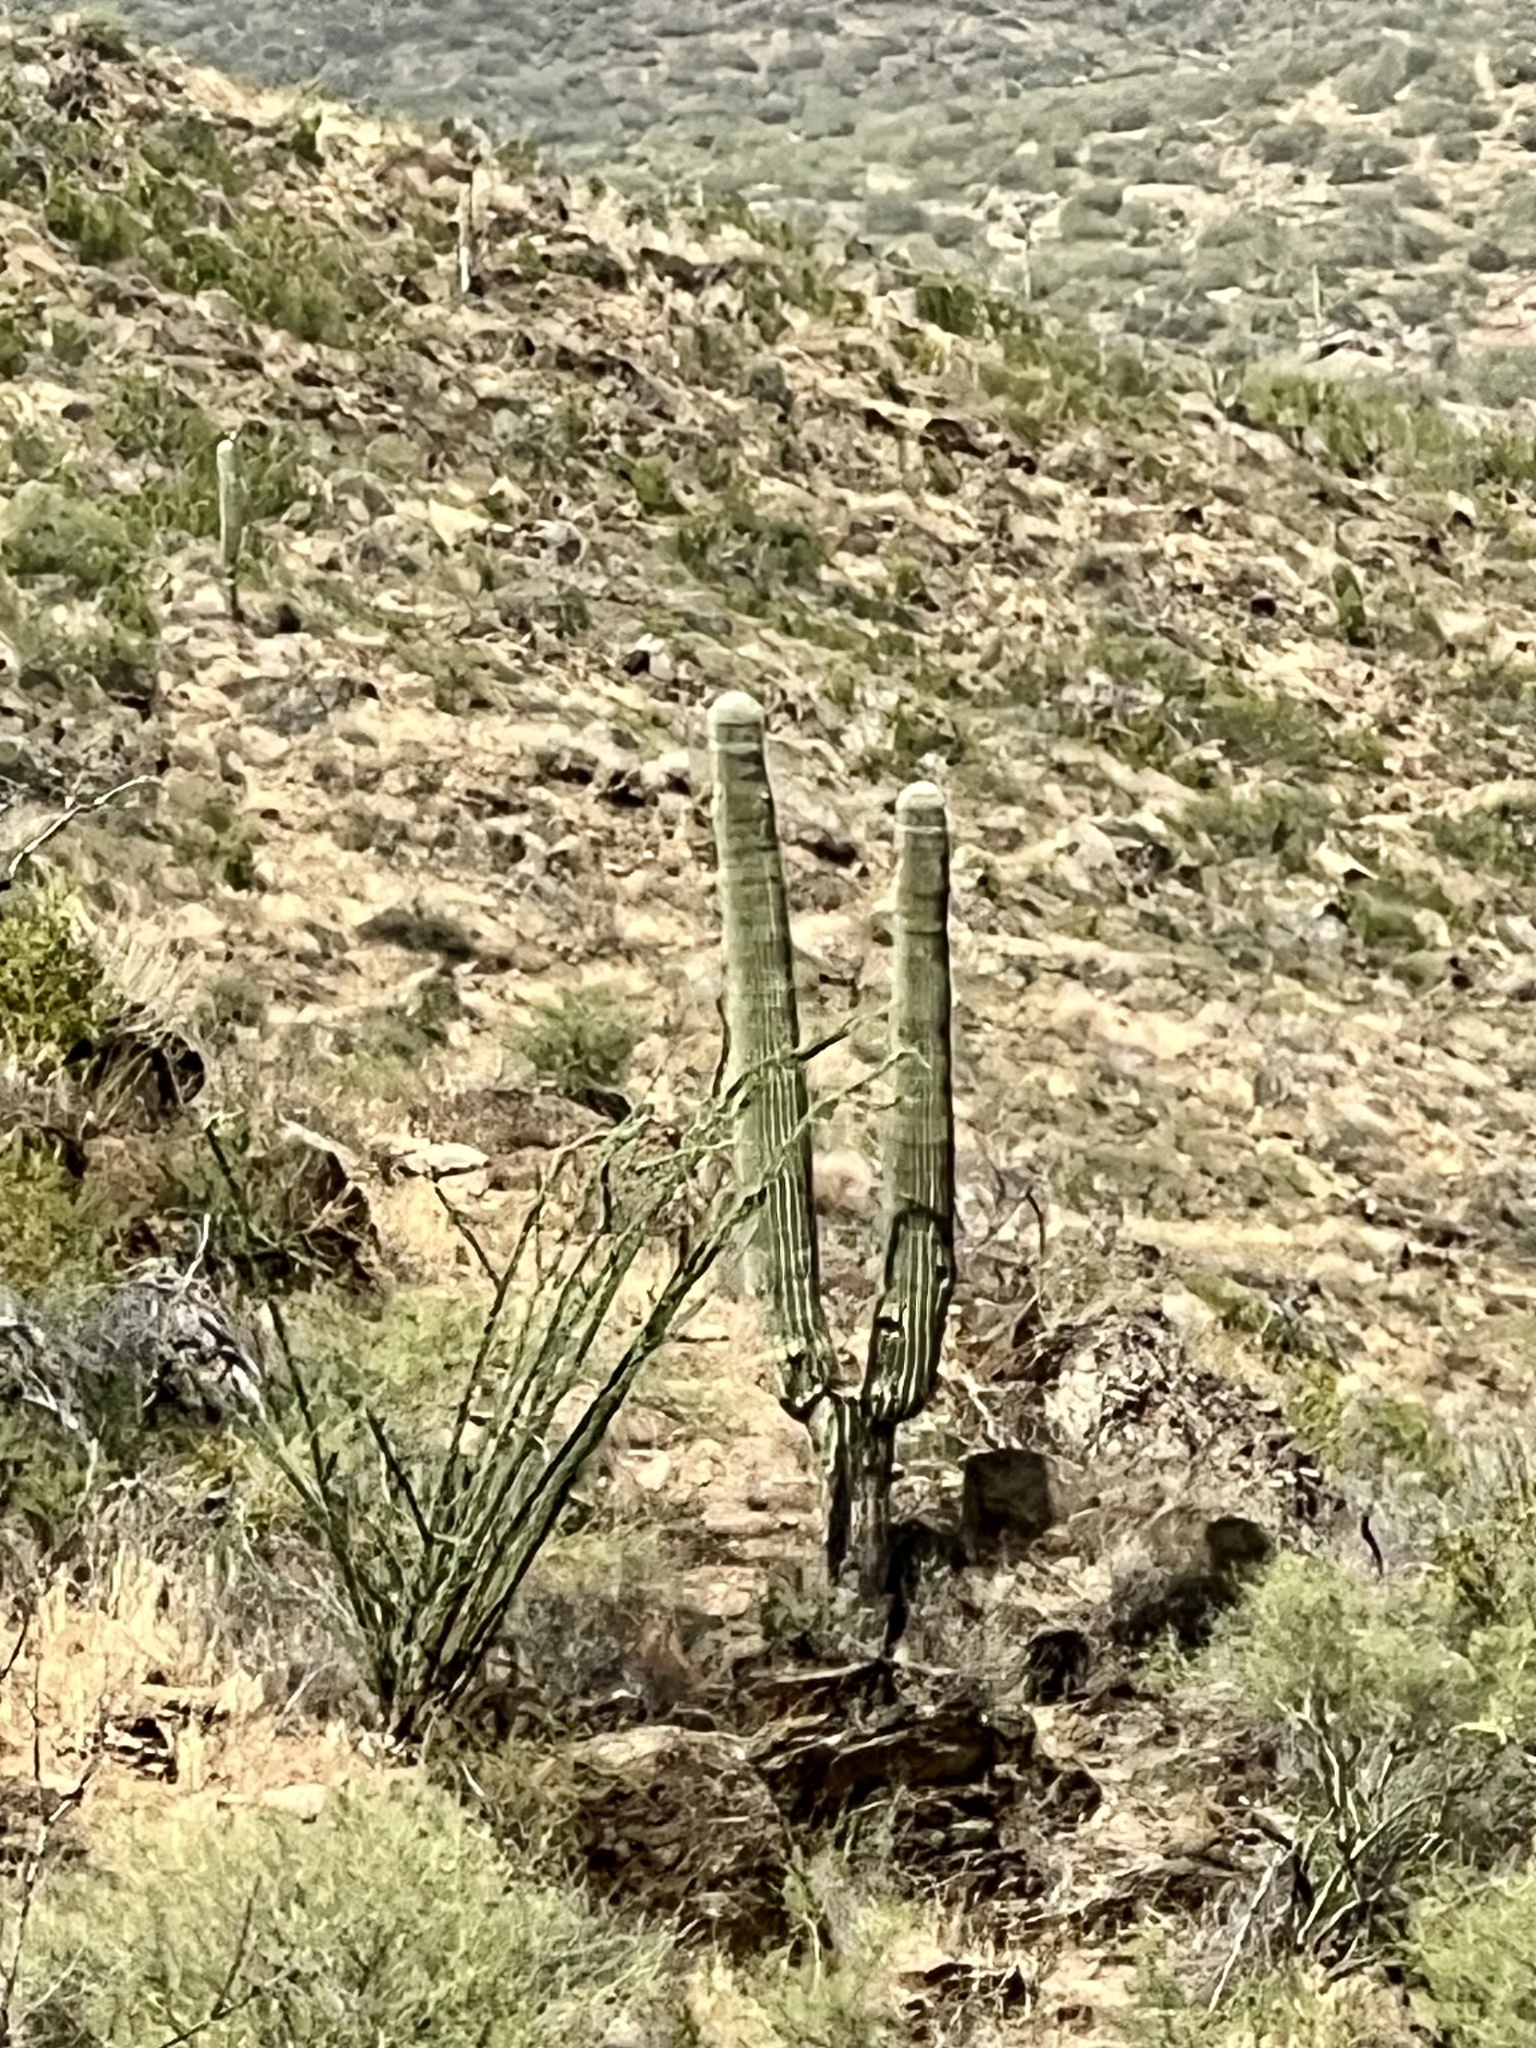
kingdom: Plantae
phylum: Tracheophyta
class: Magnoliopsida
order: Caryophyllales
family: Cactaceae
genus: Carnegiea
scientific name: Carnegiea gigantea
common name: Saguaro
